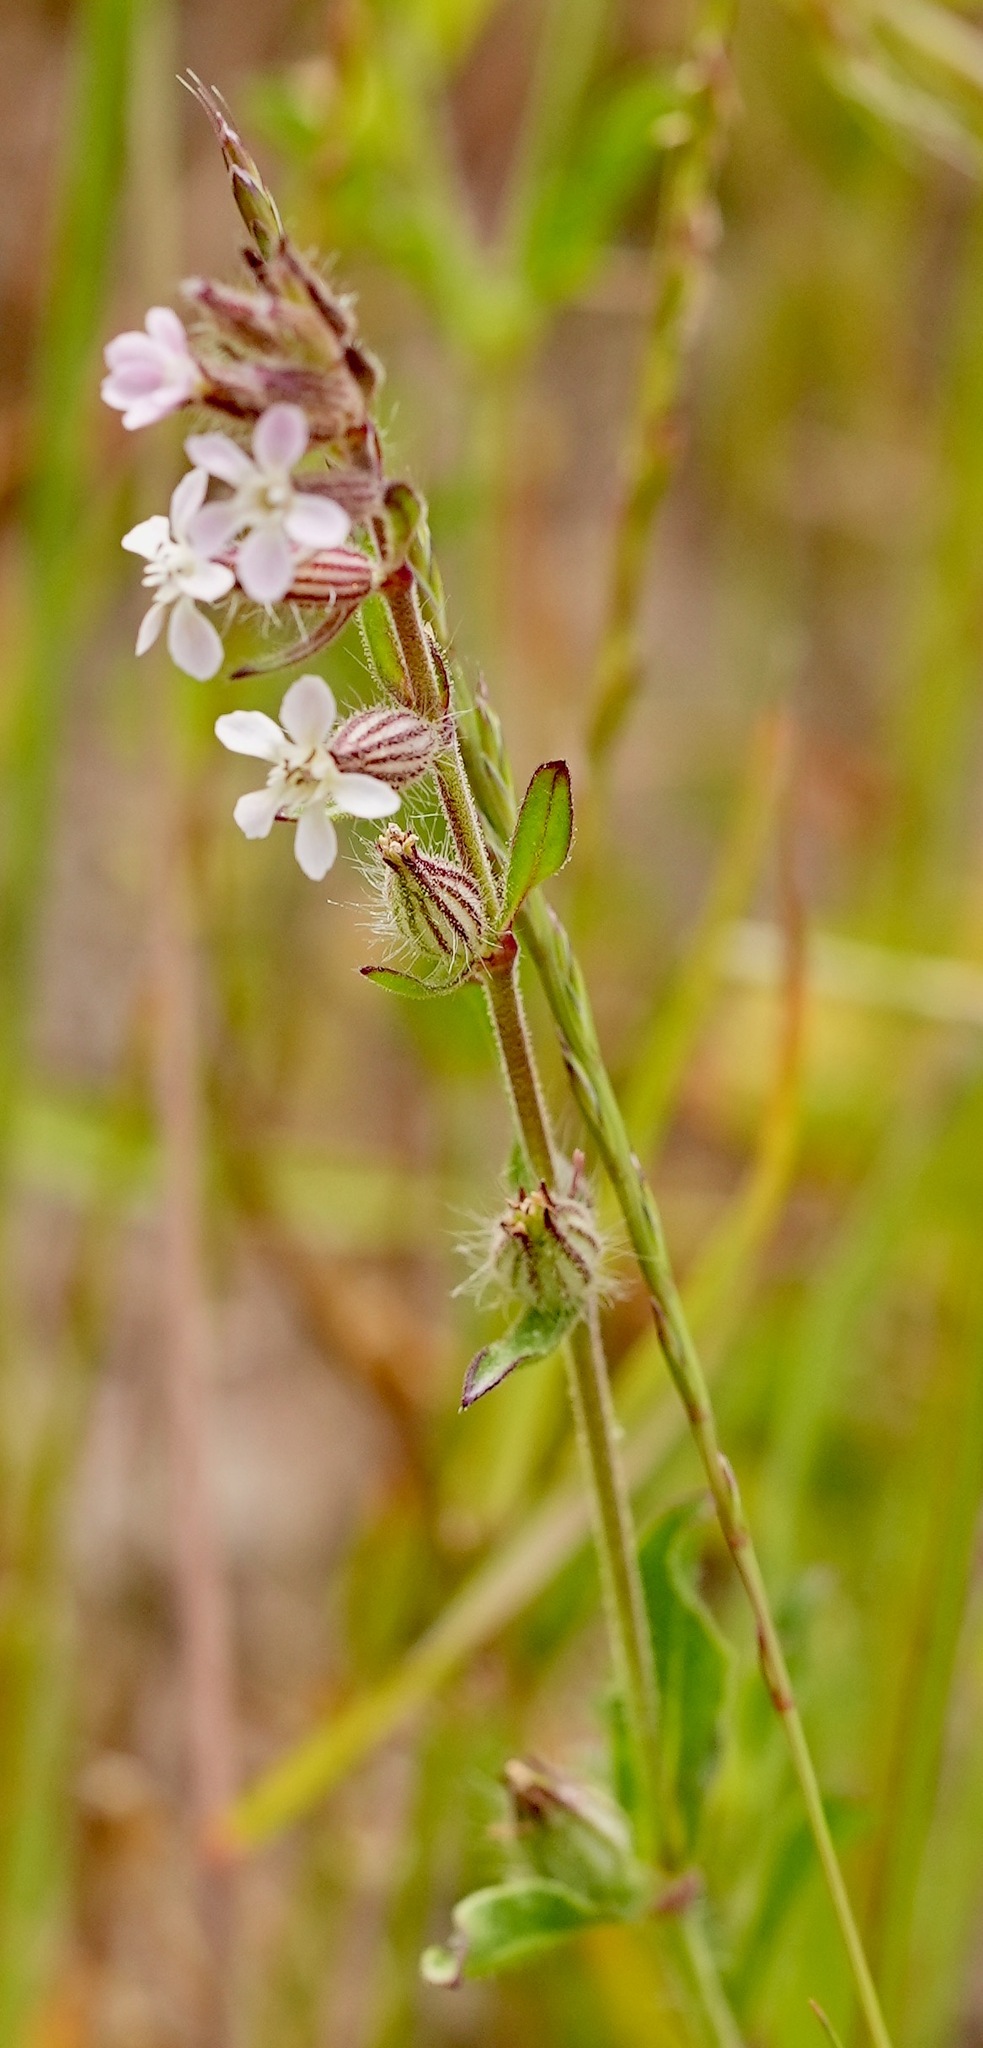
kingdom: Plantae
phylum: Tracheophyta
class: Magnoliopsida
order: Caryophyllales
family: Caryophyllaceae
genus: Silene
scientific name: Silene gallica
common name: Small-flowered catchfly
